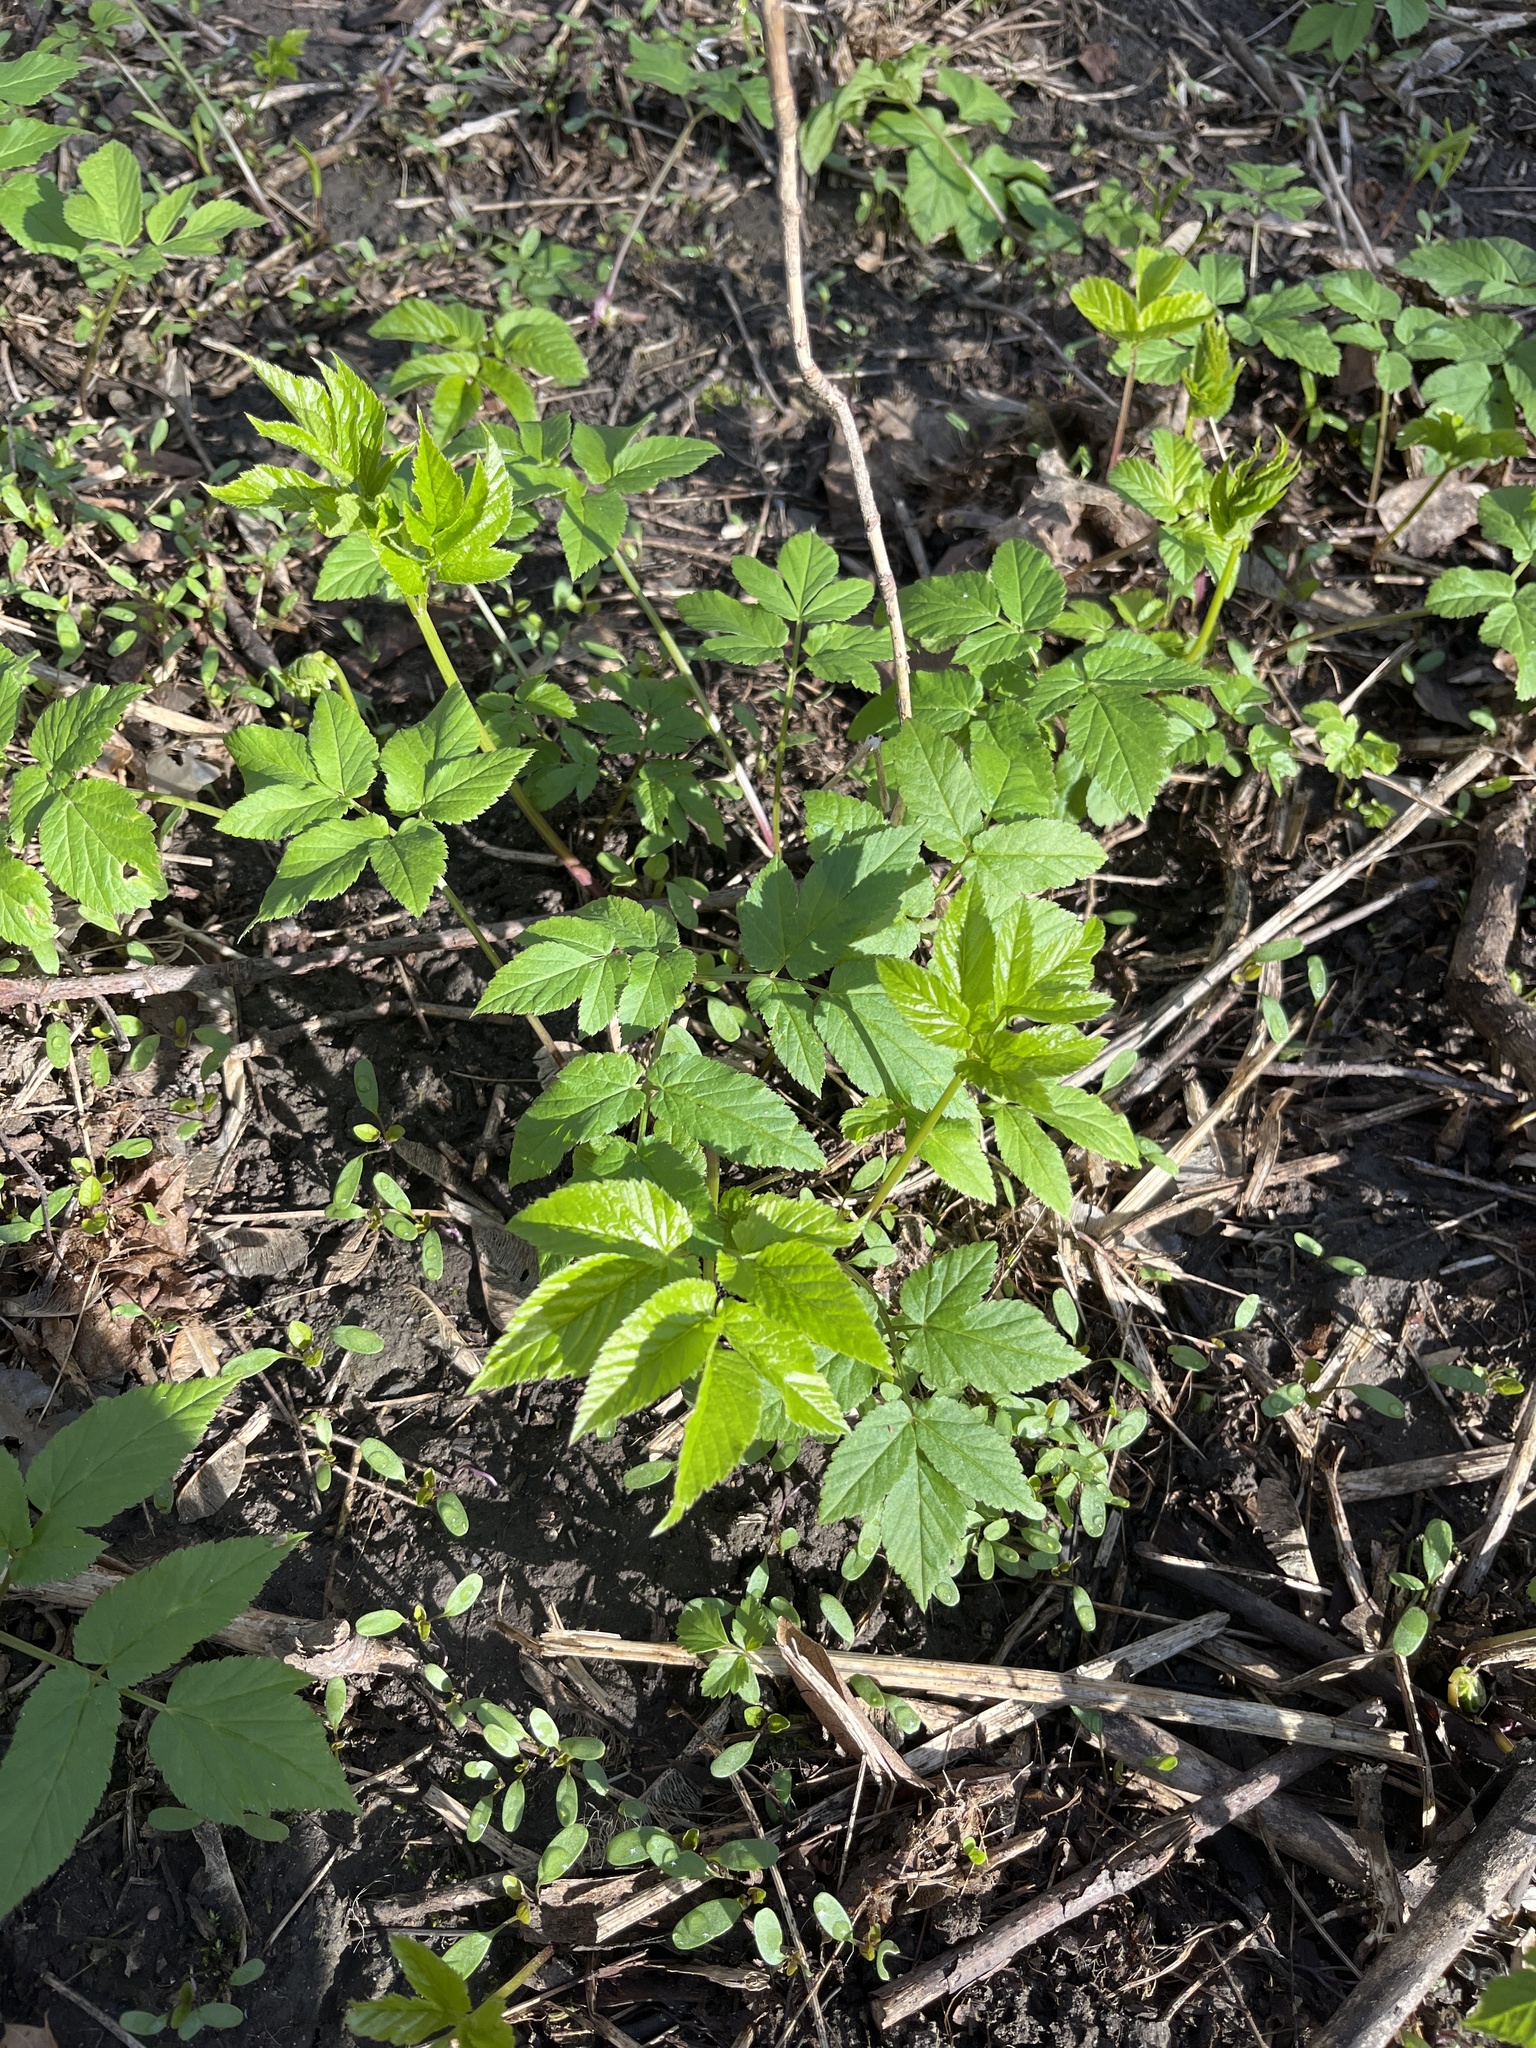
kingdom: Plantae
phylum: Tracheophyta
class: Magnoliopsida
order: Apiales
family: Apiaceae
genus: Aegopodium
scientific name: Aegopodium podagraria
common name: Ground-elder
